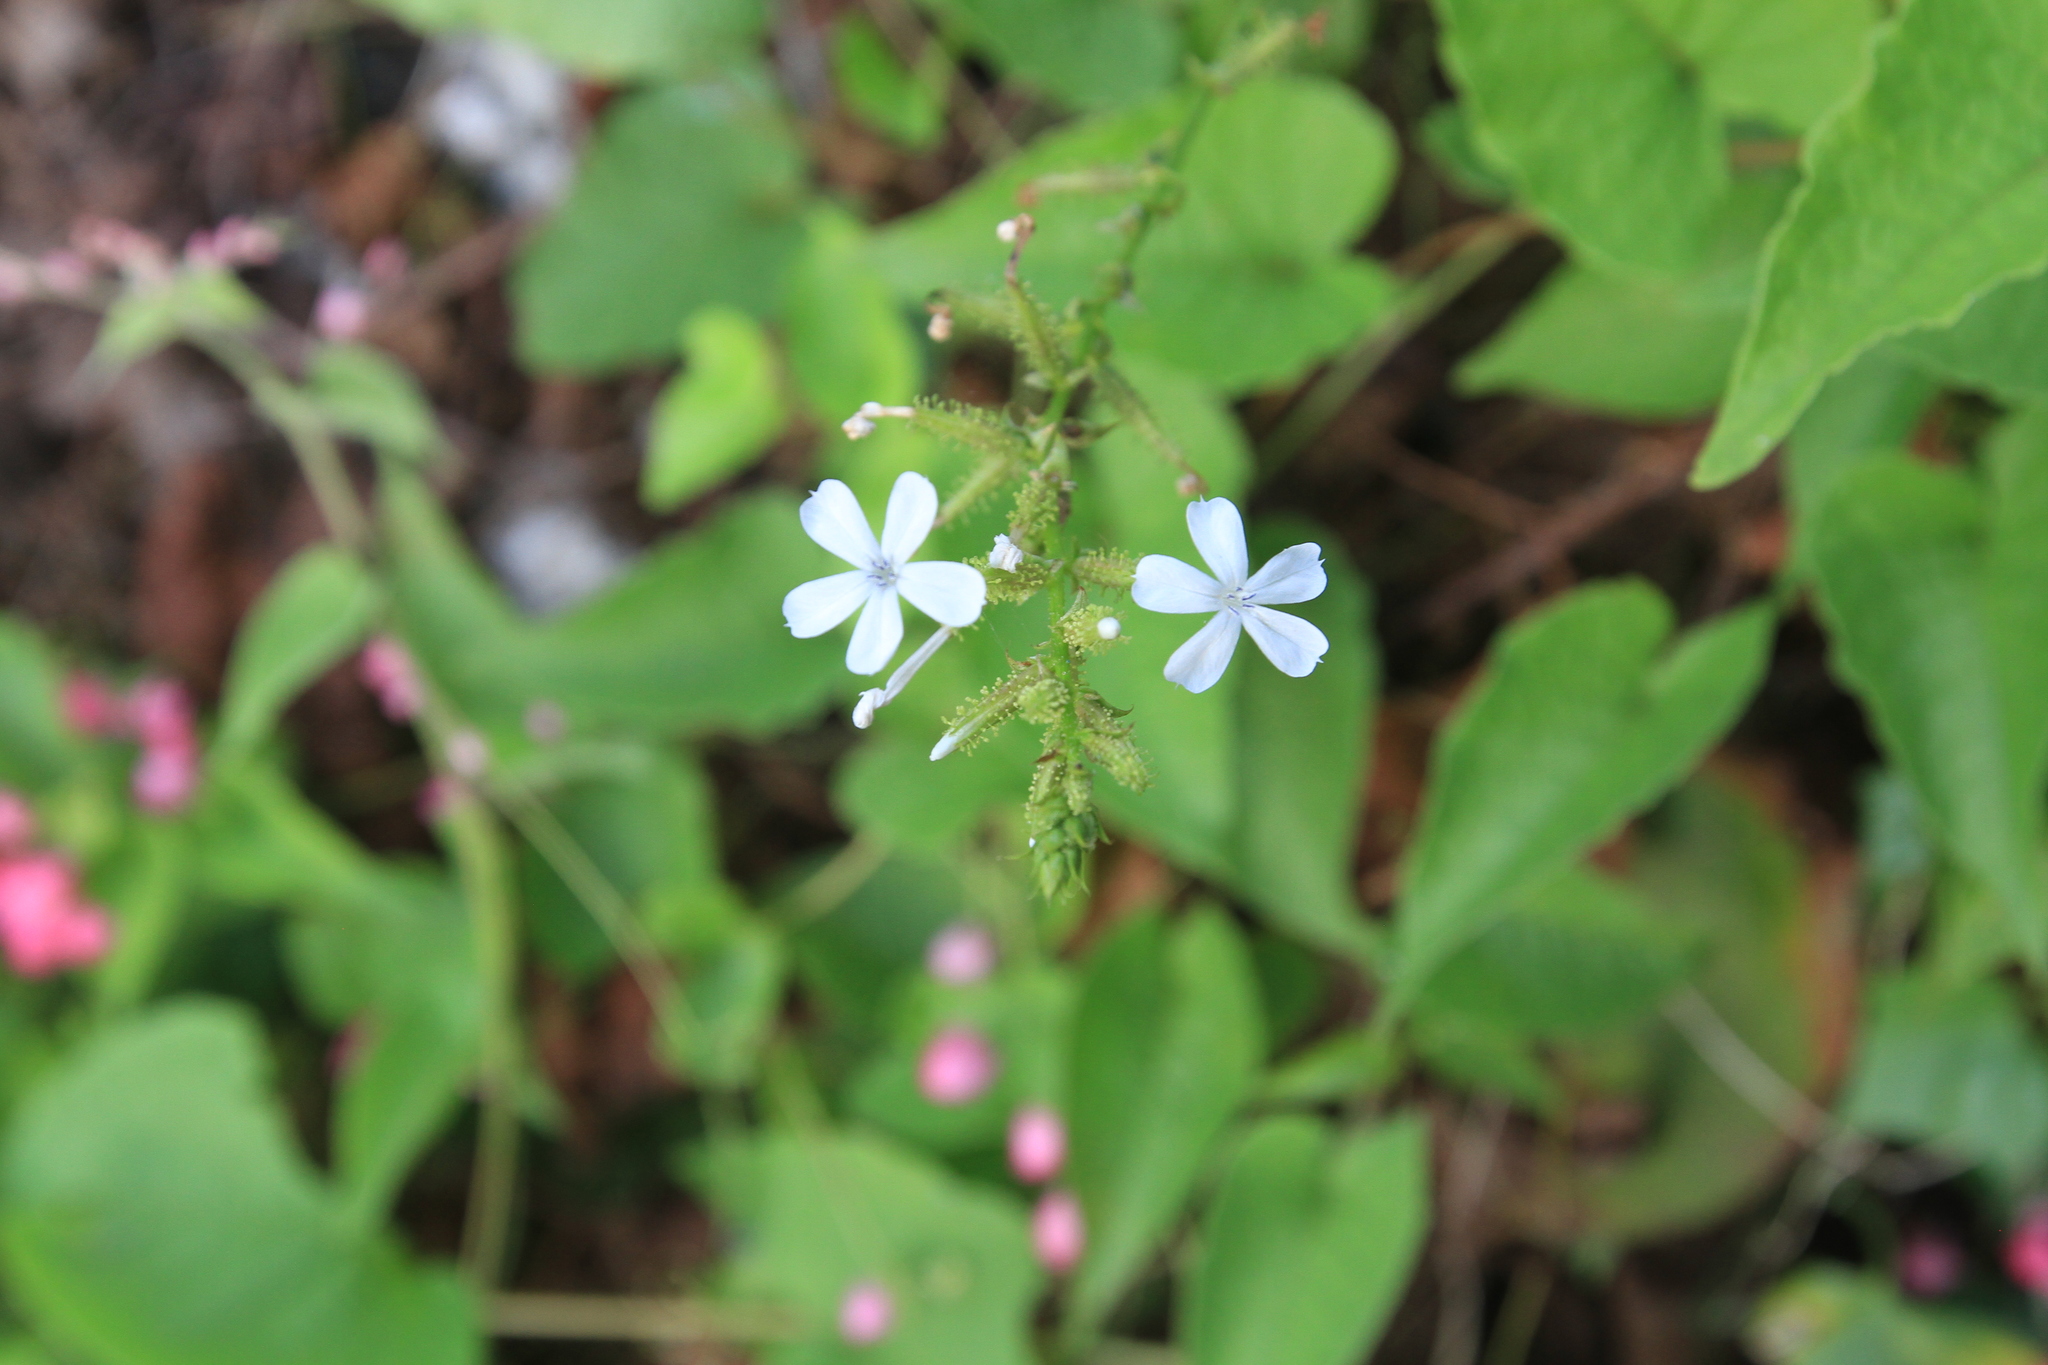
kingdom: Plantae
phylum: Tracheophyta
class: Magnoliopsida
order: Caryophyllales
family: Plumbaginaceae
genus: Plumbago
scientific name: Plumbago zeylanica
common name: Doctorbush
